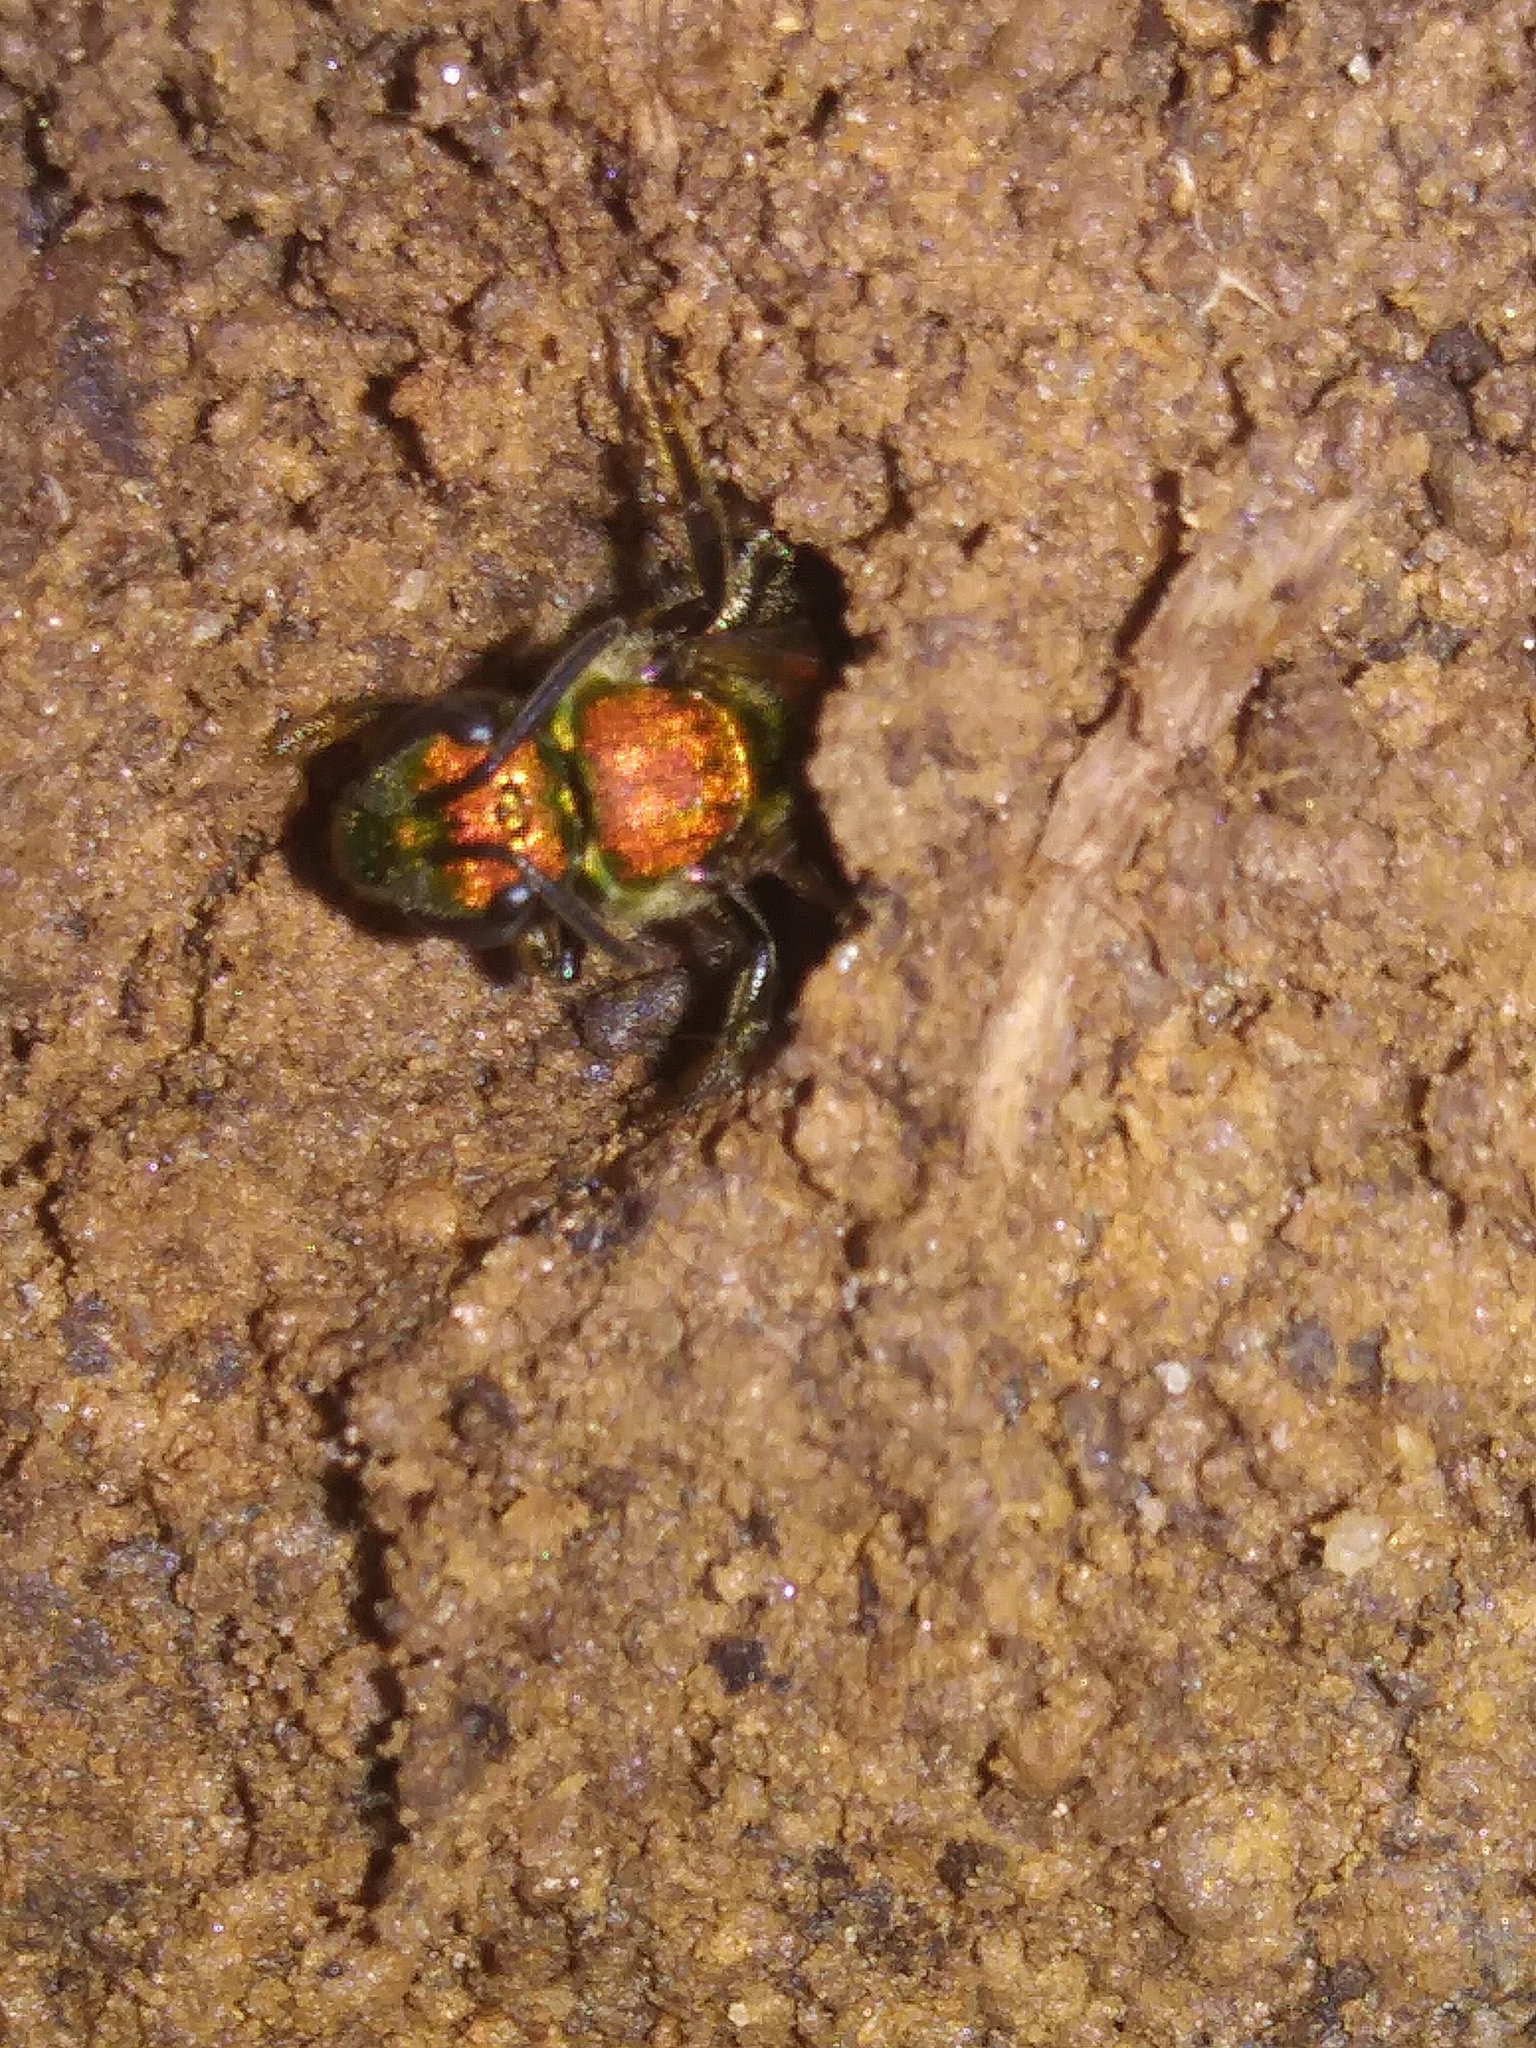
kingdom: Animalia
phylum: Arthropoda
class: Insecta
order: Hymenoptera
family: Halictidae
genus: Augochlora
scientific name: Augochlora pura
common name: Pure green sweat bee
